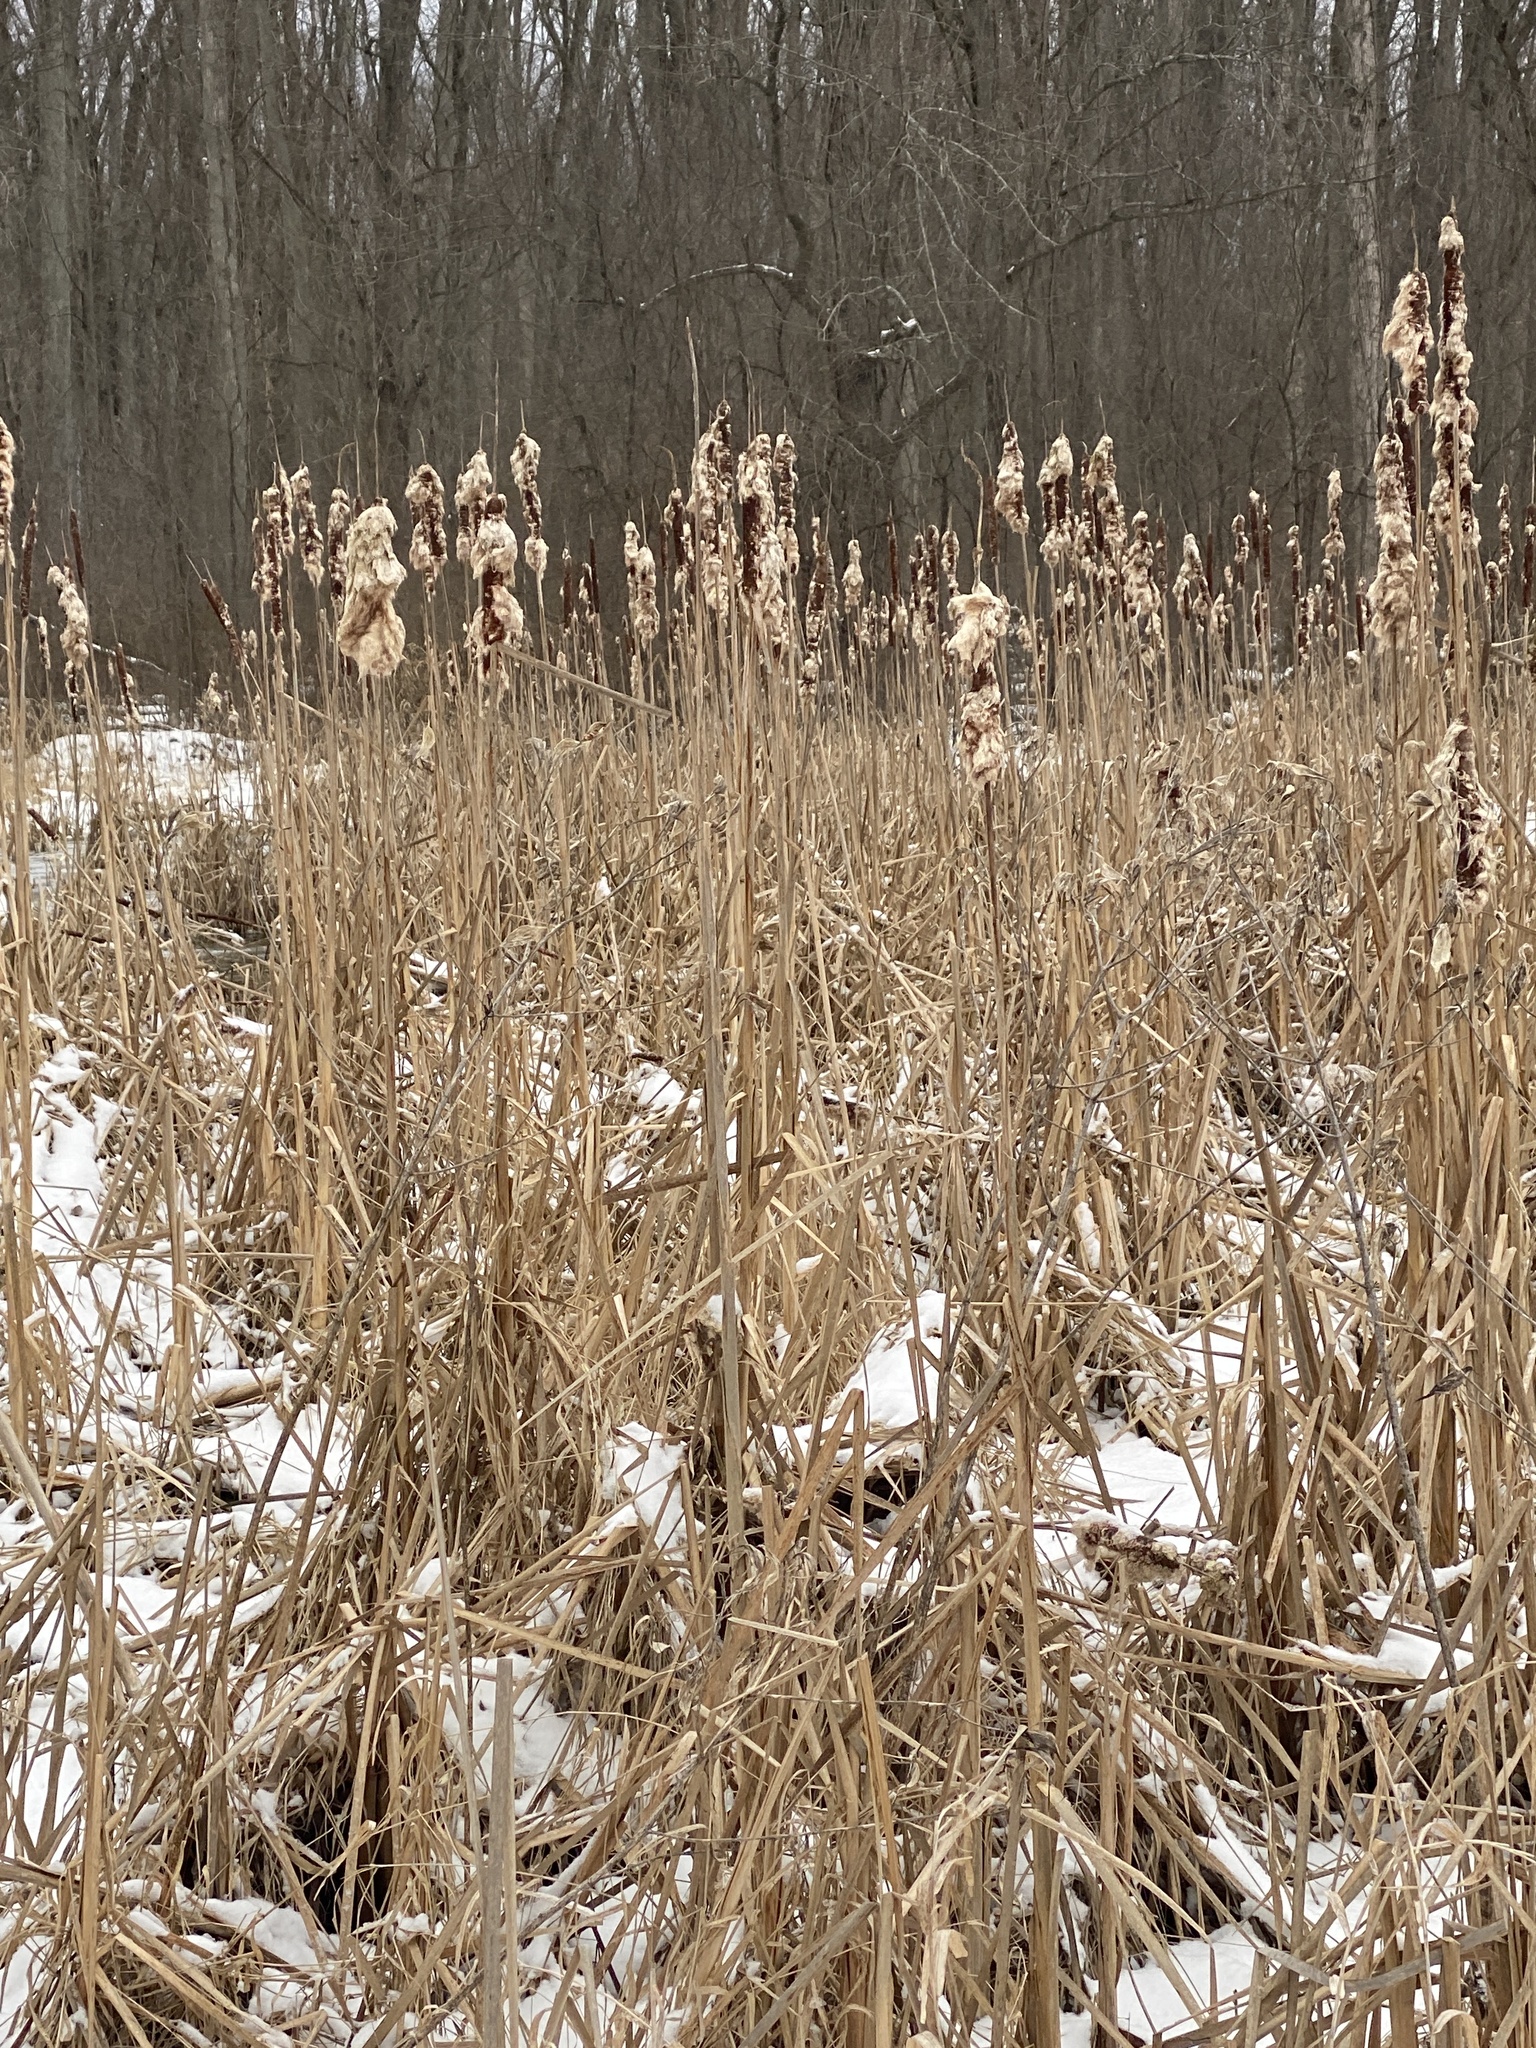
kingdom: Plantae
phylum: Tracheophyta
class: Liliopsida
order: Poales
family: Typhaceae
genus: Typha
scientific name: Typha
